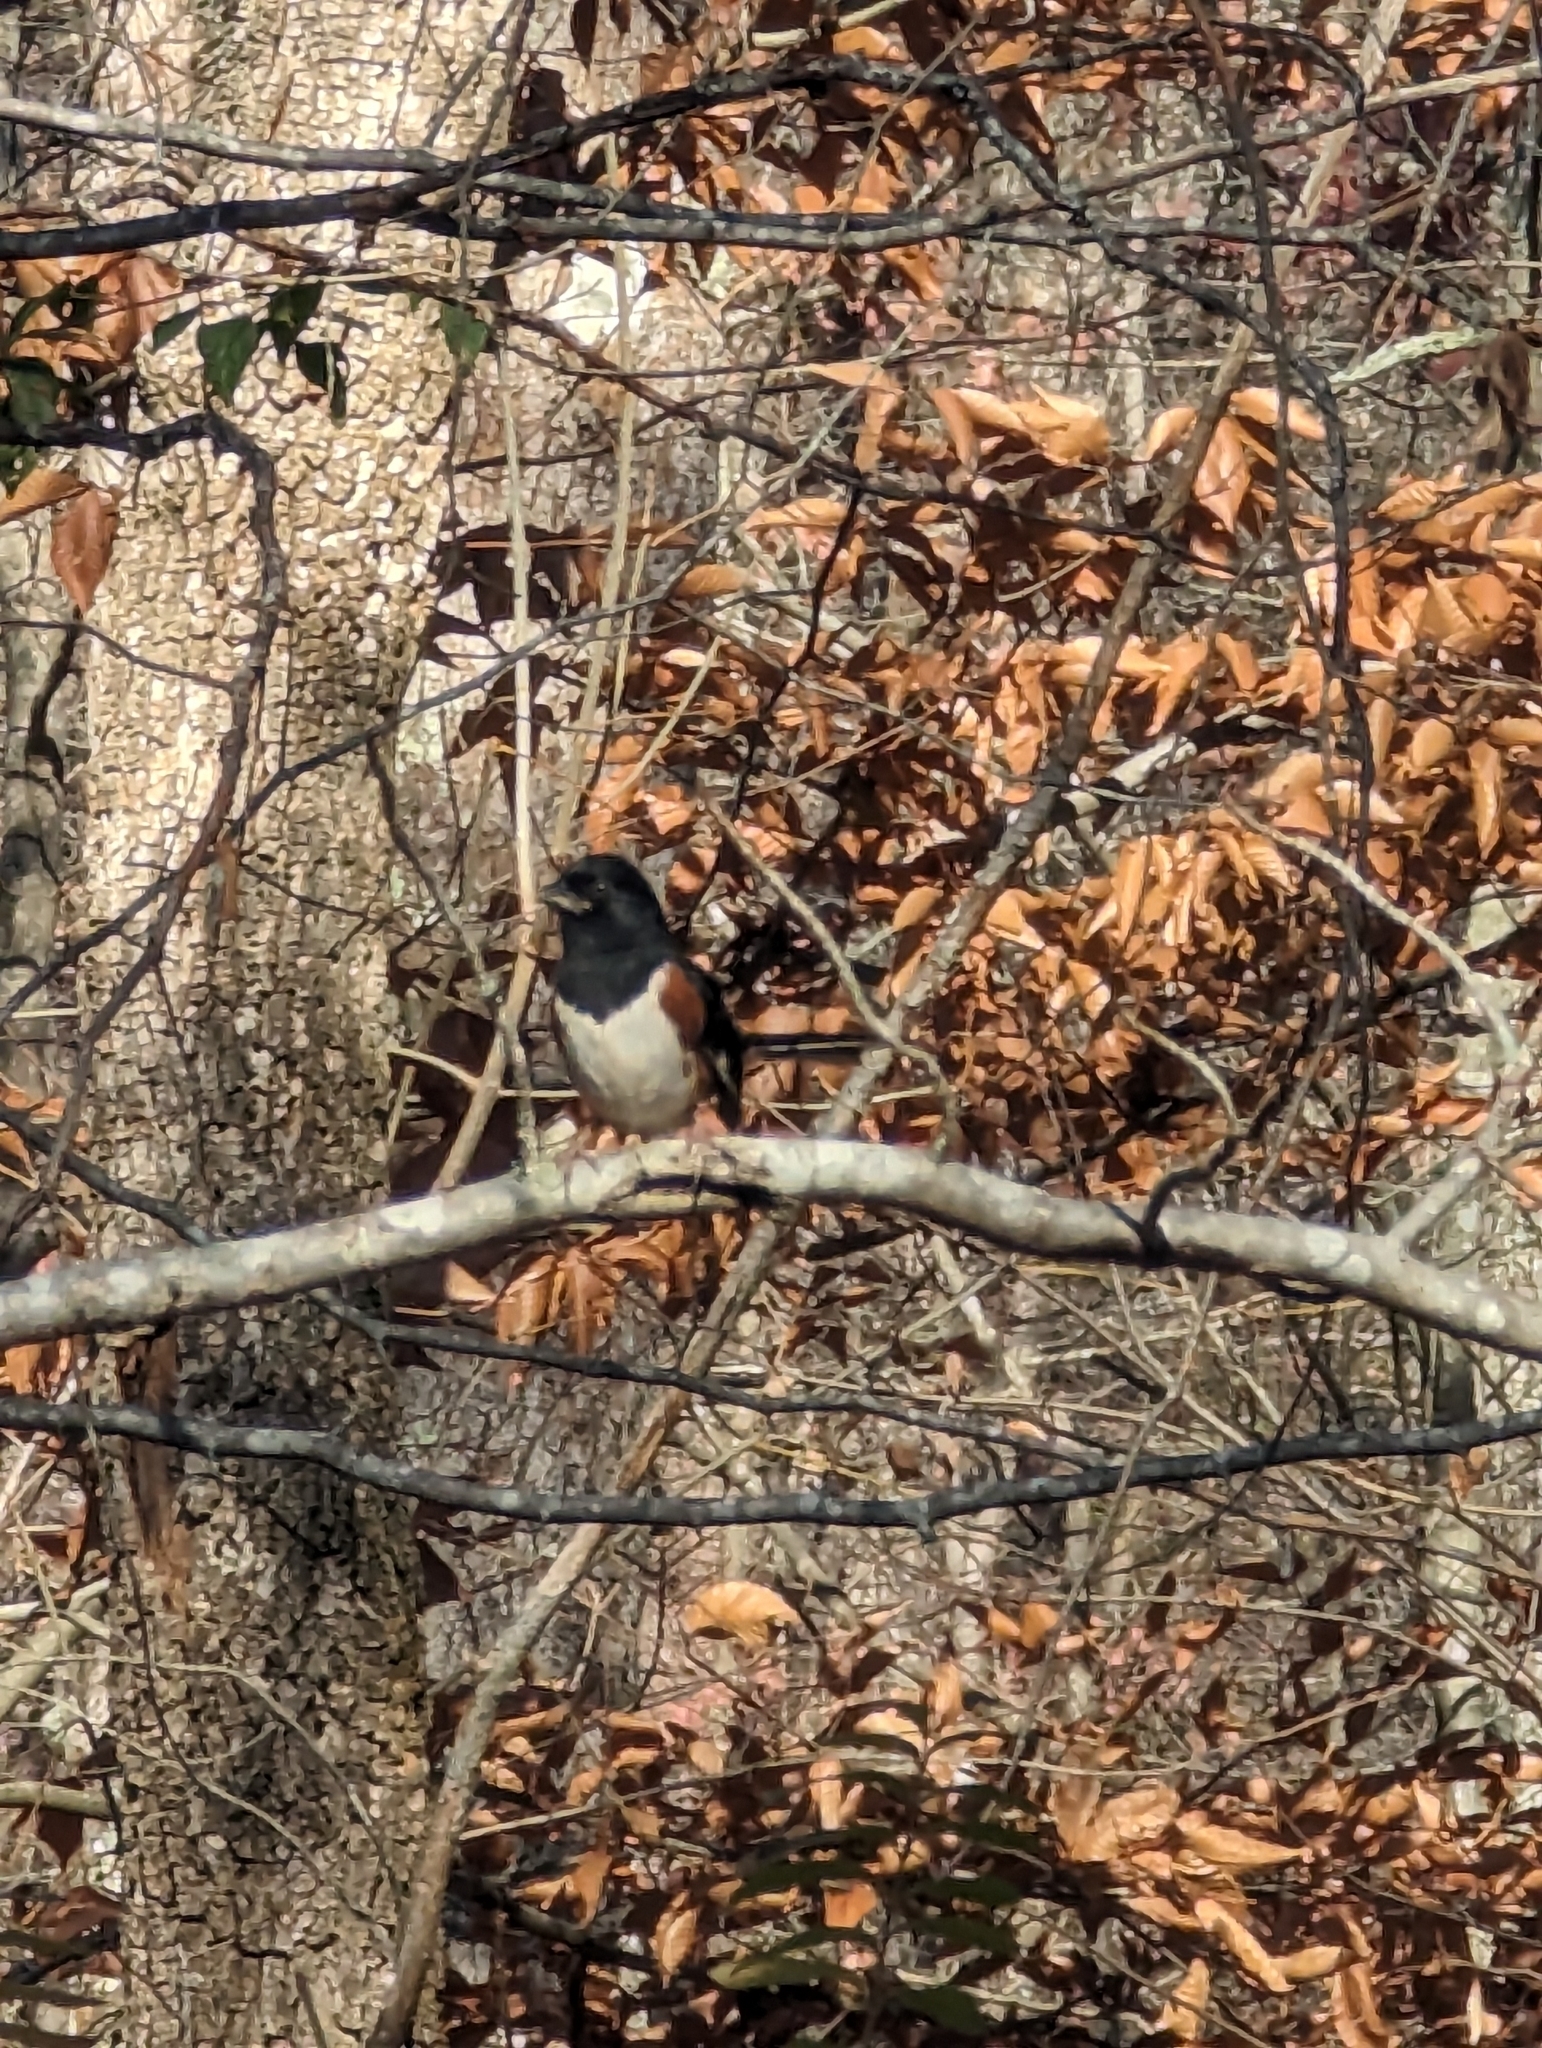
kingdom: Animalia
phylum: Chordata
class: Aves
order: Passeriformes
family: Passerellidae
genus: Pipilo
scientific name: Pipilo erythrophthalmus
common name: Eastern towhee
